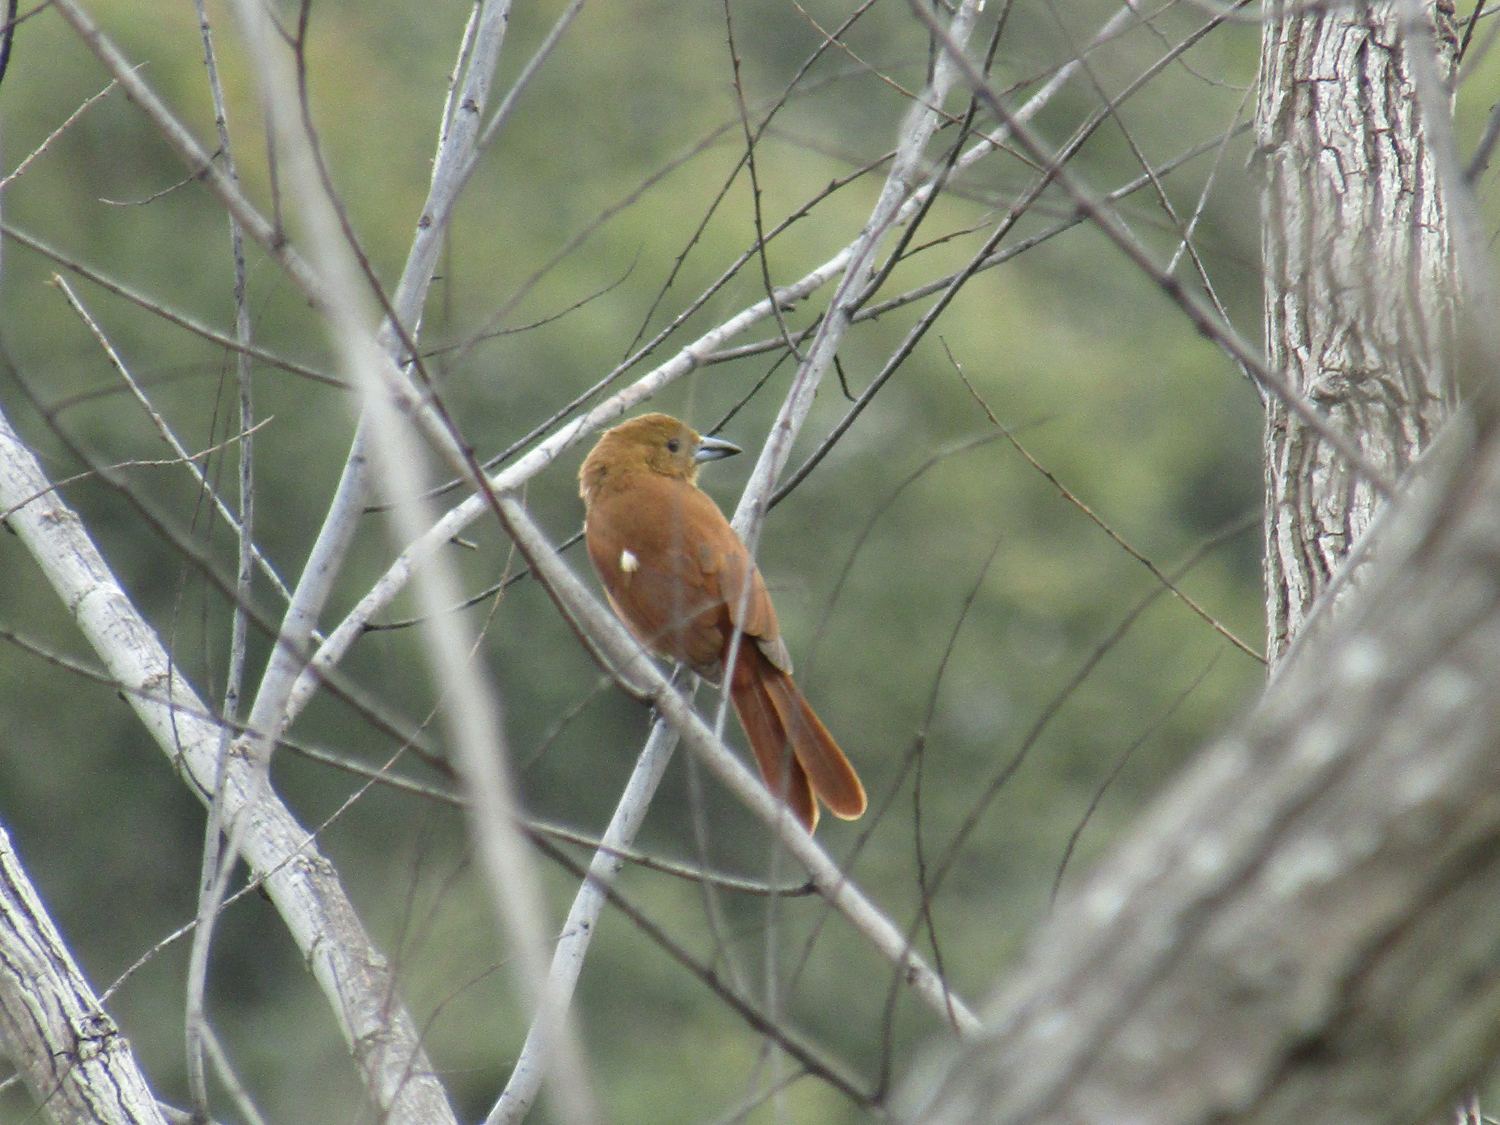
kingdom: Animalia
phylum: Chordata
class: Aves
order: Passeriformes
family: Thraupidae
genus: Tachyphonus
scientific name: Tachyphonus rufus
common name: White-lined tanager
